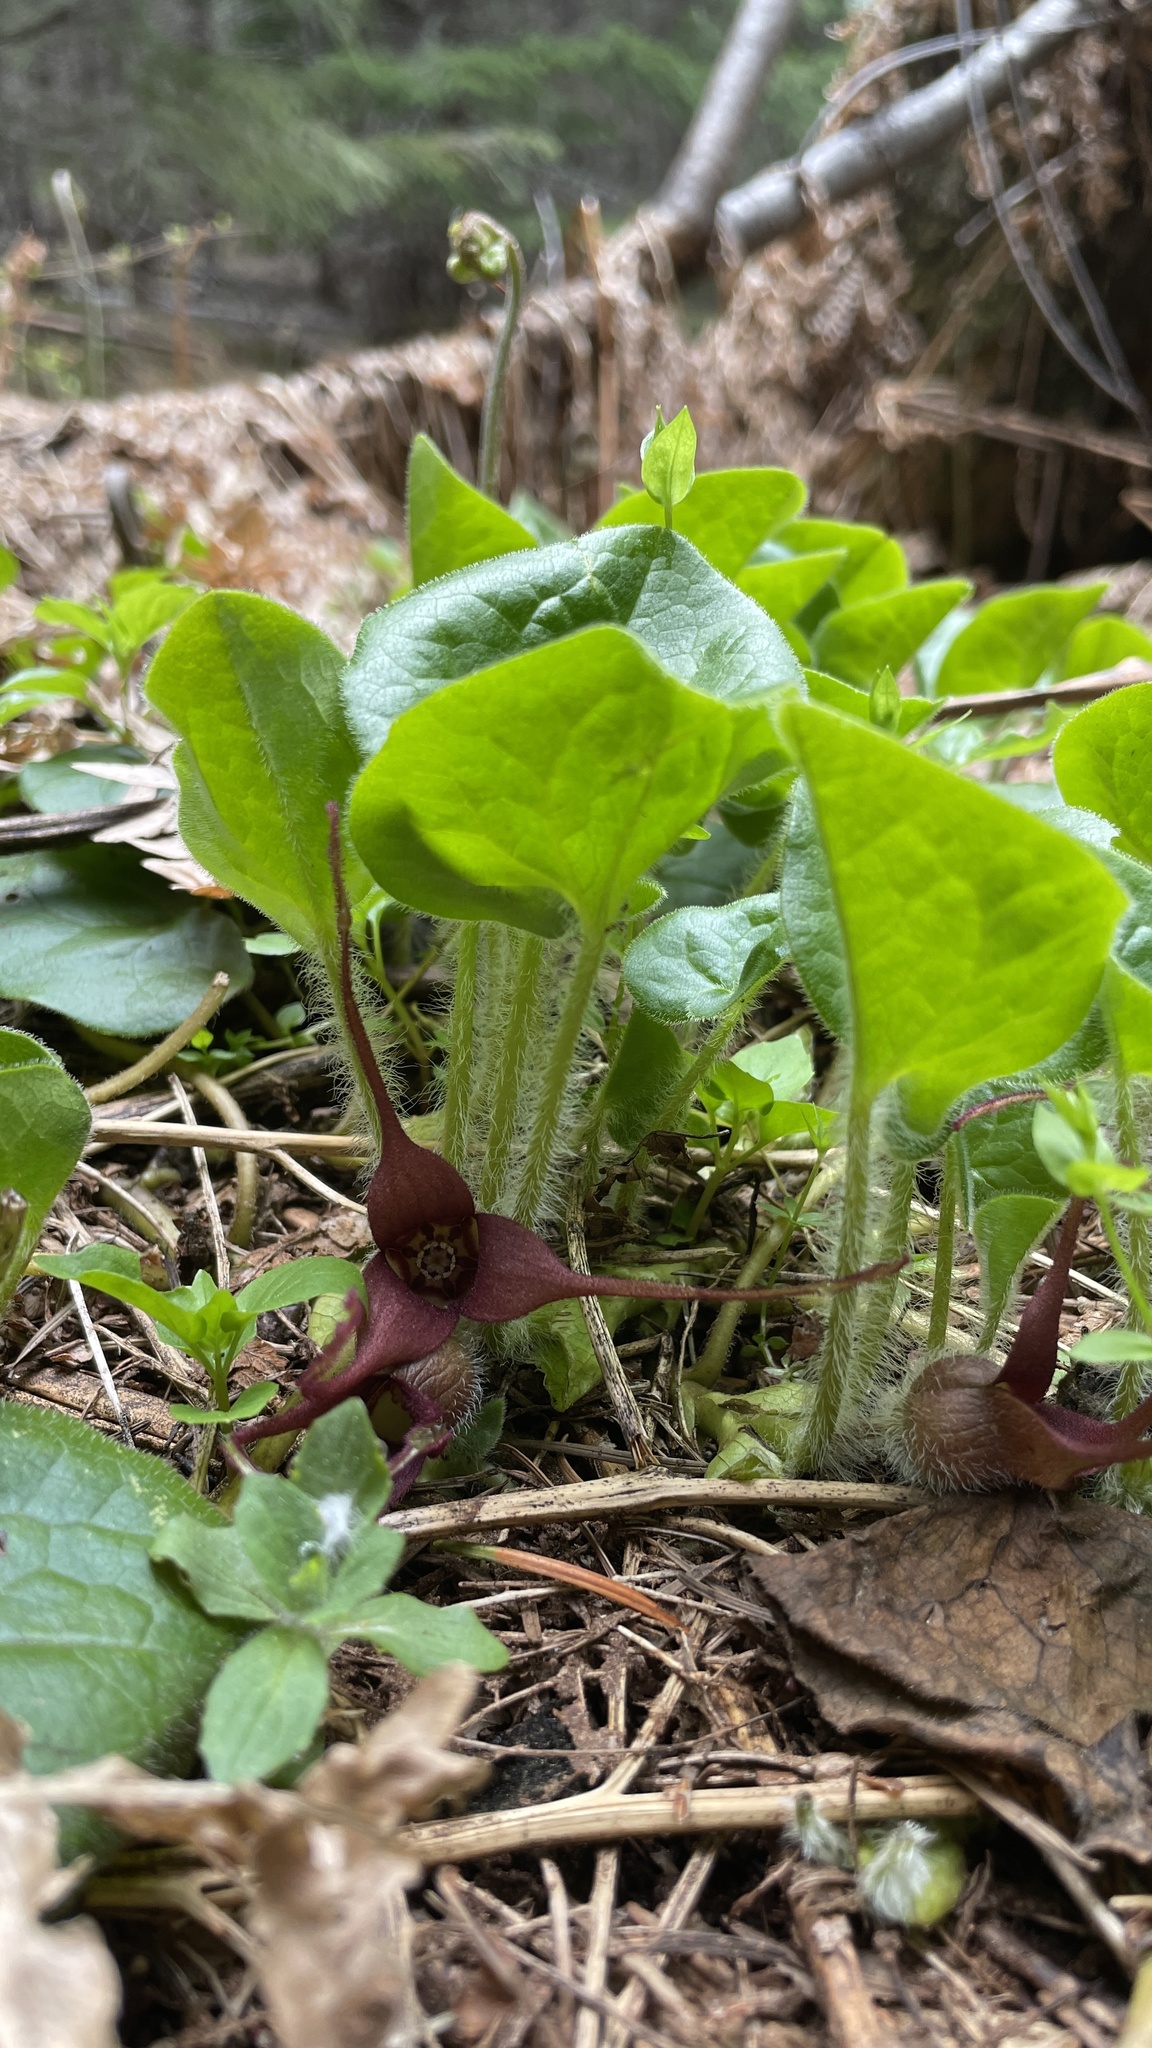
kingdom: Plantae
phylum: Tracheophyta
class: Magnoliopsida
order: Piperales
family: Aristolochiaceae
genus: Asarum
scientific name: Asarum caudatum
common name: Wild ginger
